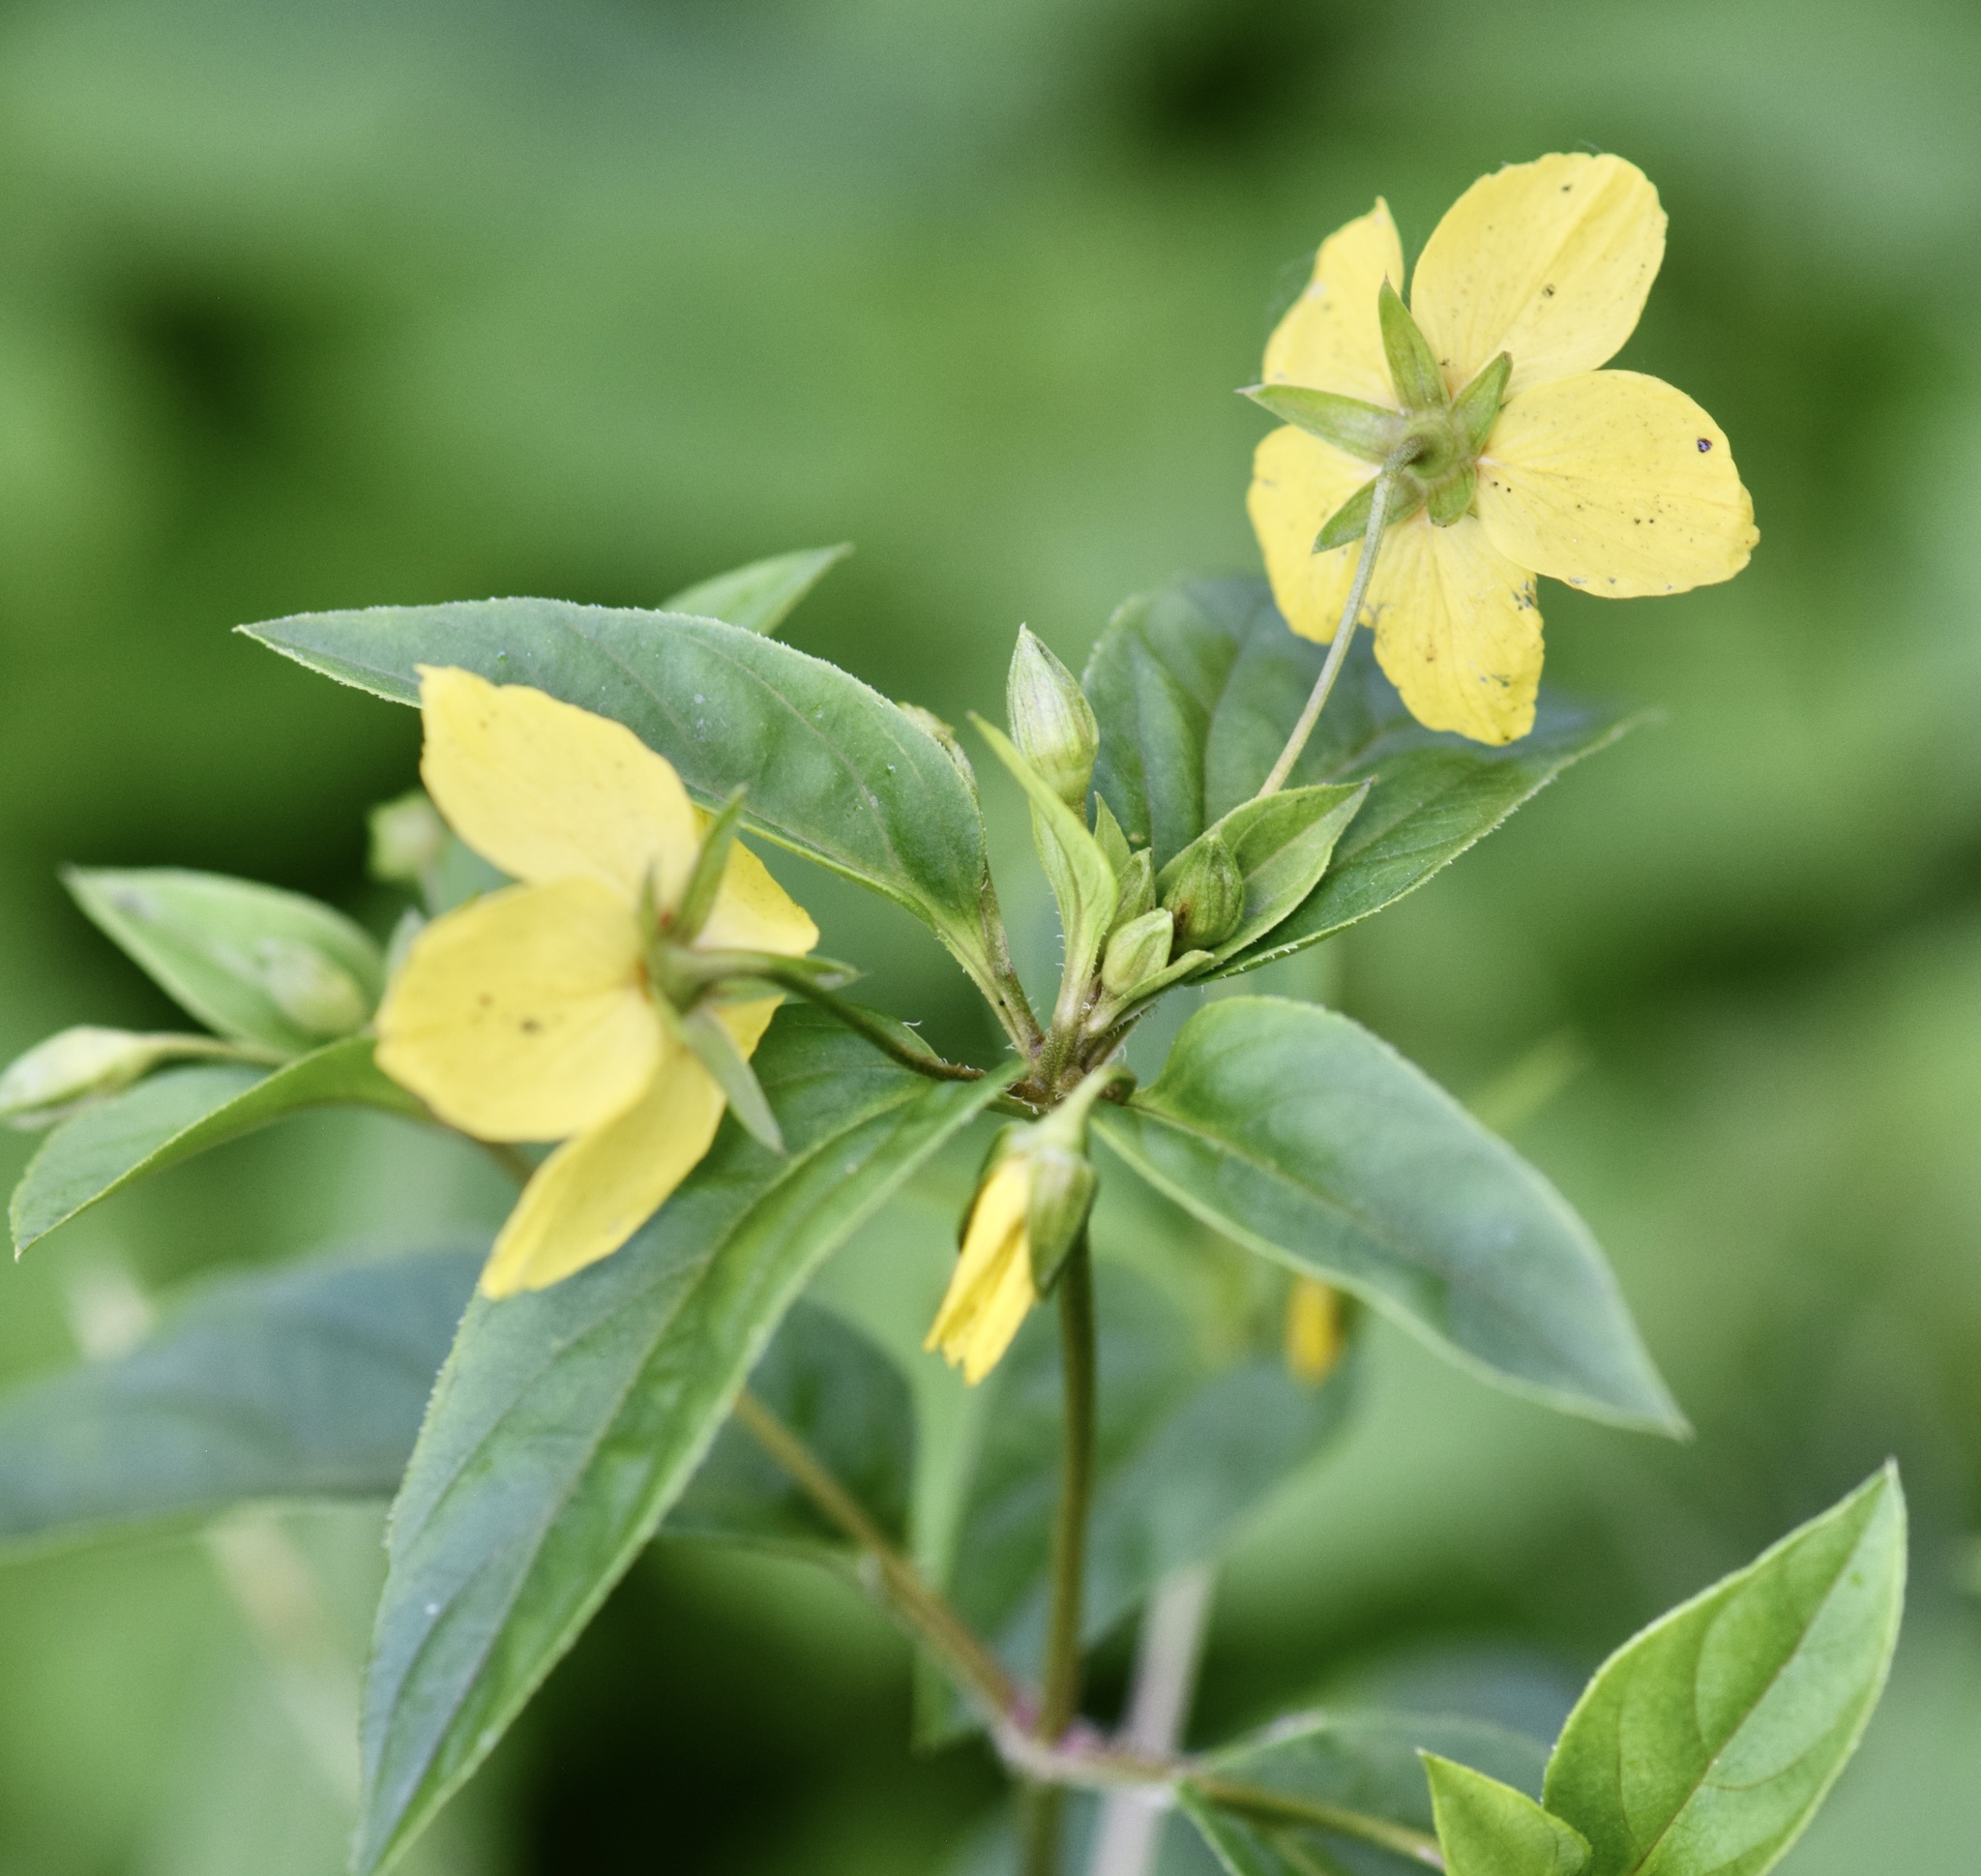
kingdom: Plantae
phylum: Tracheophyta
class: Magnoliopsida
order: Ericales
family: Primulaceae
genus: Lysimachia
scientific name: Lysimachia ciliata
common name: Fringed loosestrife
